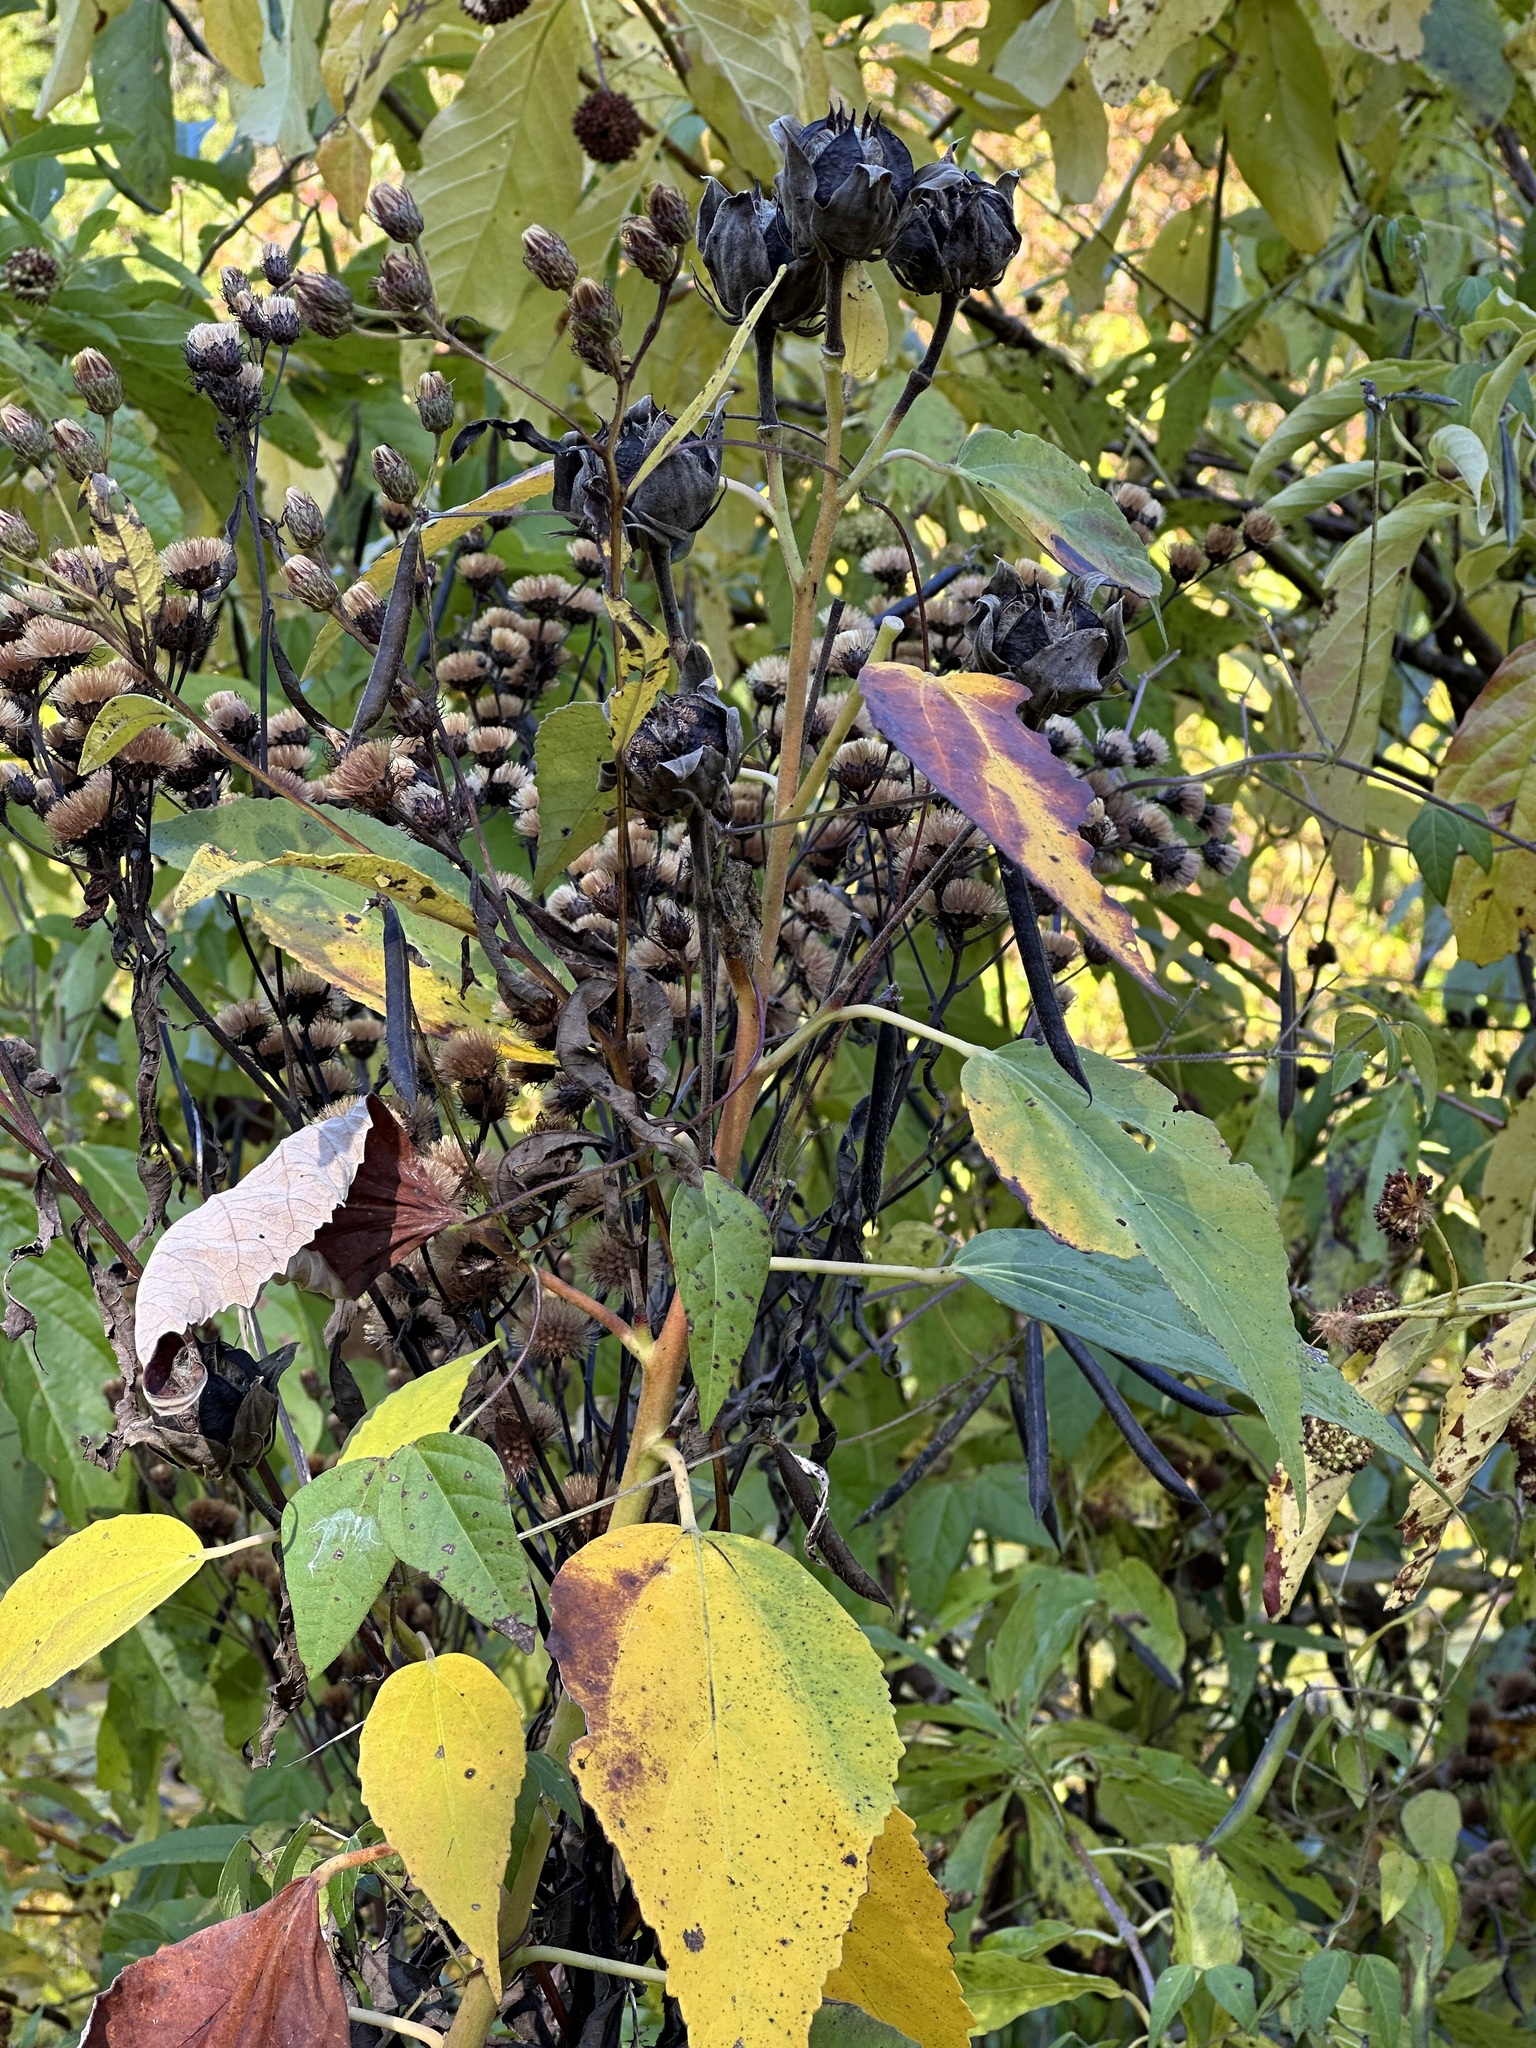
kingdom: Plantae
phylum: Tracheophyta
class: Magnoliopsida
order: Malvales
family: Malvaceae
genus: Hibiscus
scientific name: Hibiscus moscheutos
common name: Common rose-mallow
